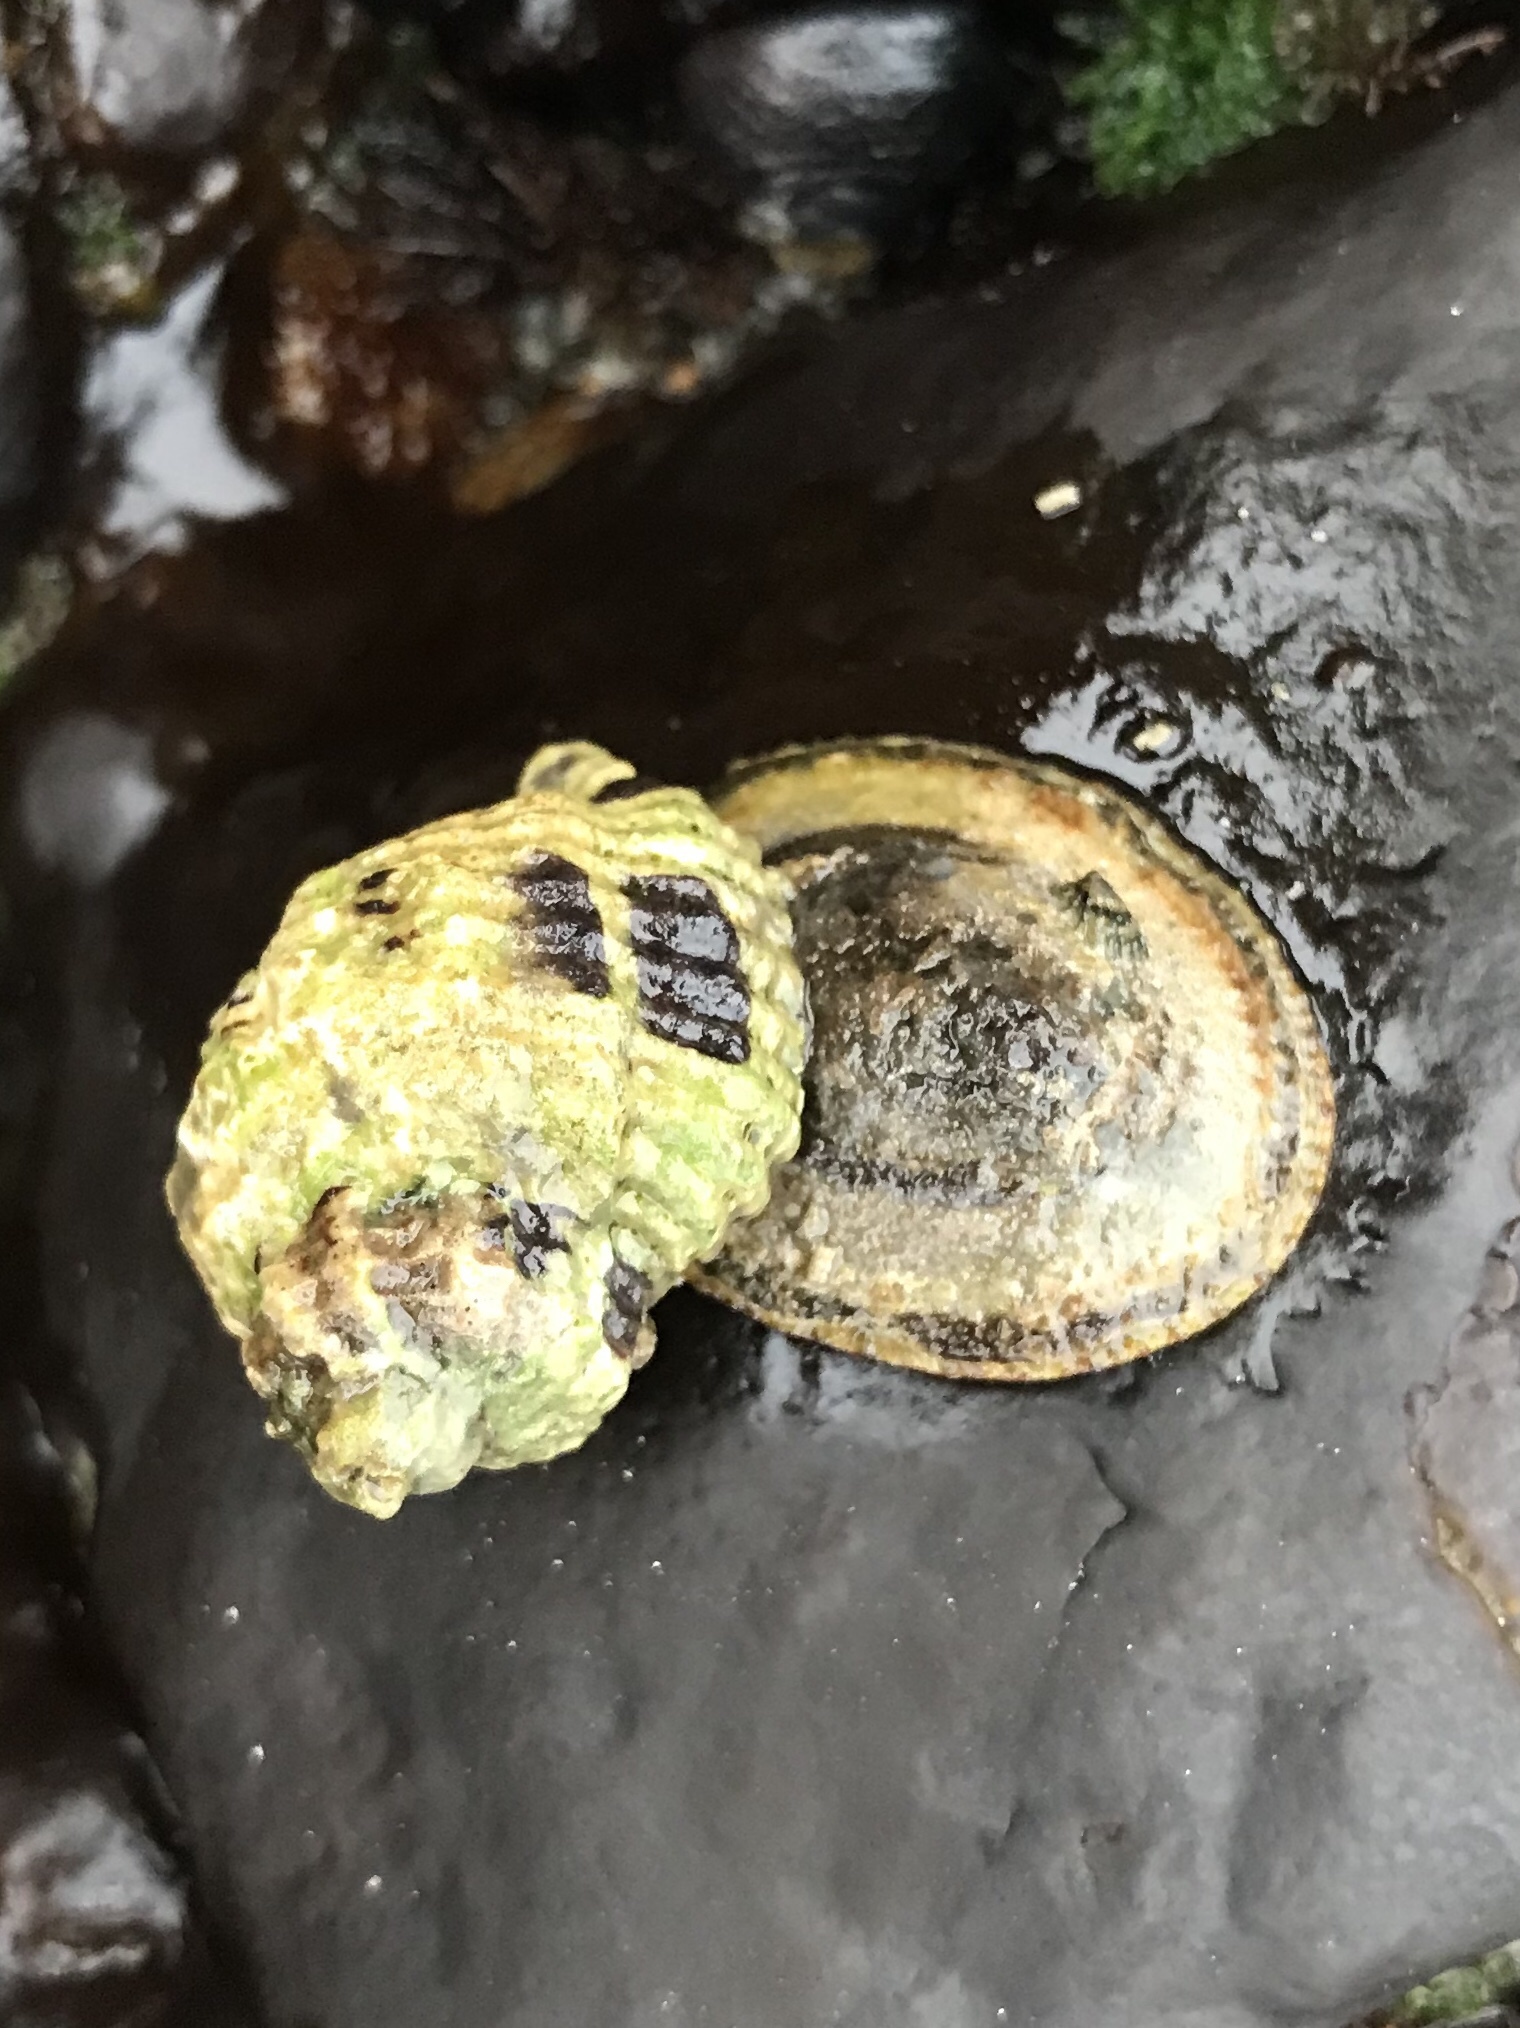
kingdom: Animalia
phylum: Mollusca
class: Gastropoda
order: Neogastropoda
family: Muricidae
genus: Paciocinebrina
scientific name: Paciocinebrina circumtexta
